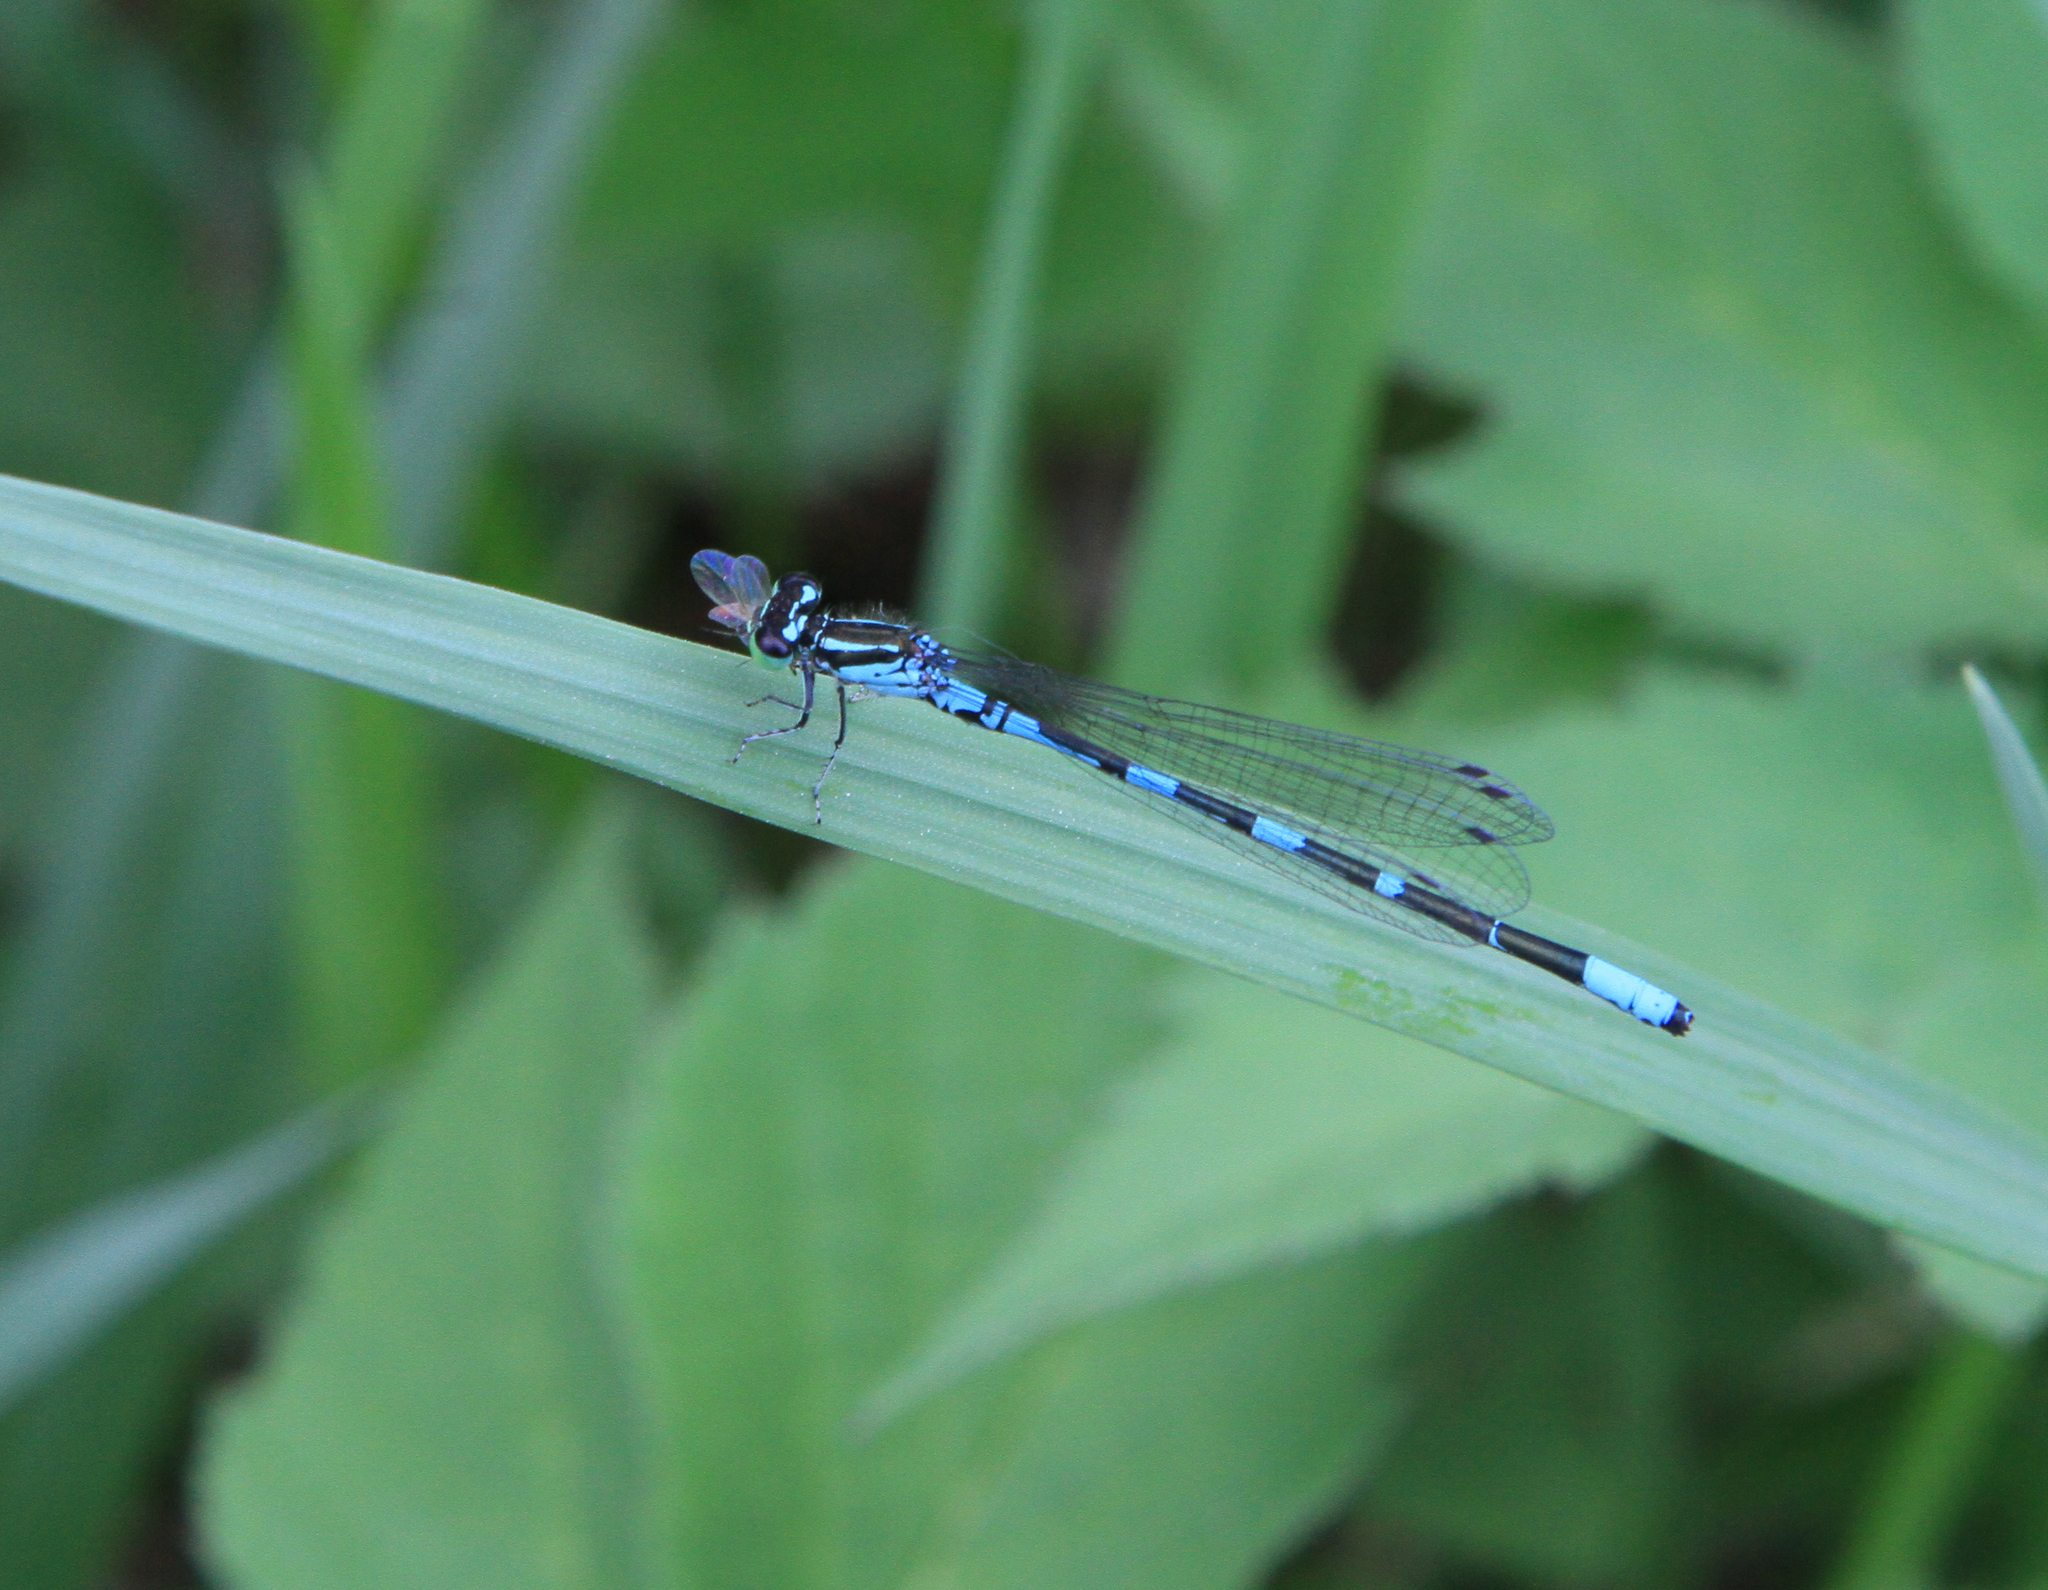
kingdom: Animalia
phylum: Arthropoda
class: Insecta
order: Odonata
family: Coenagrionidae
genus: Coenagrion
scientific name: Coenagrion johanssoni
